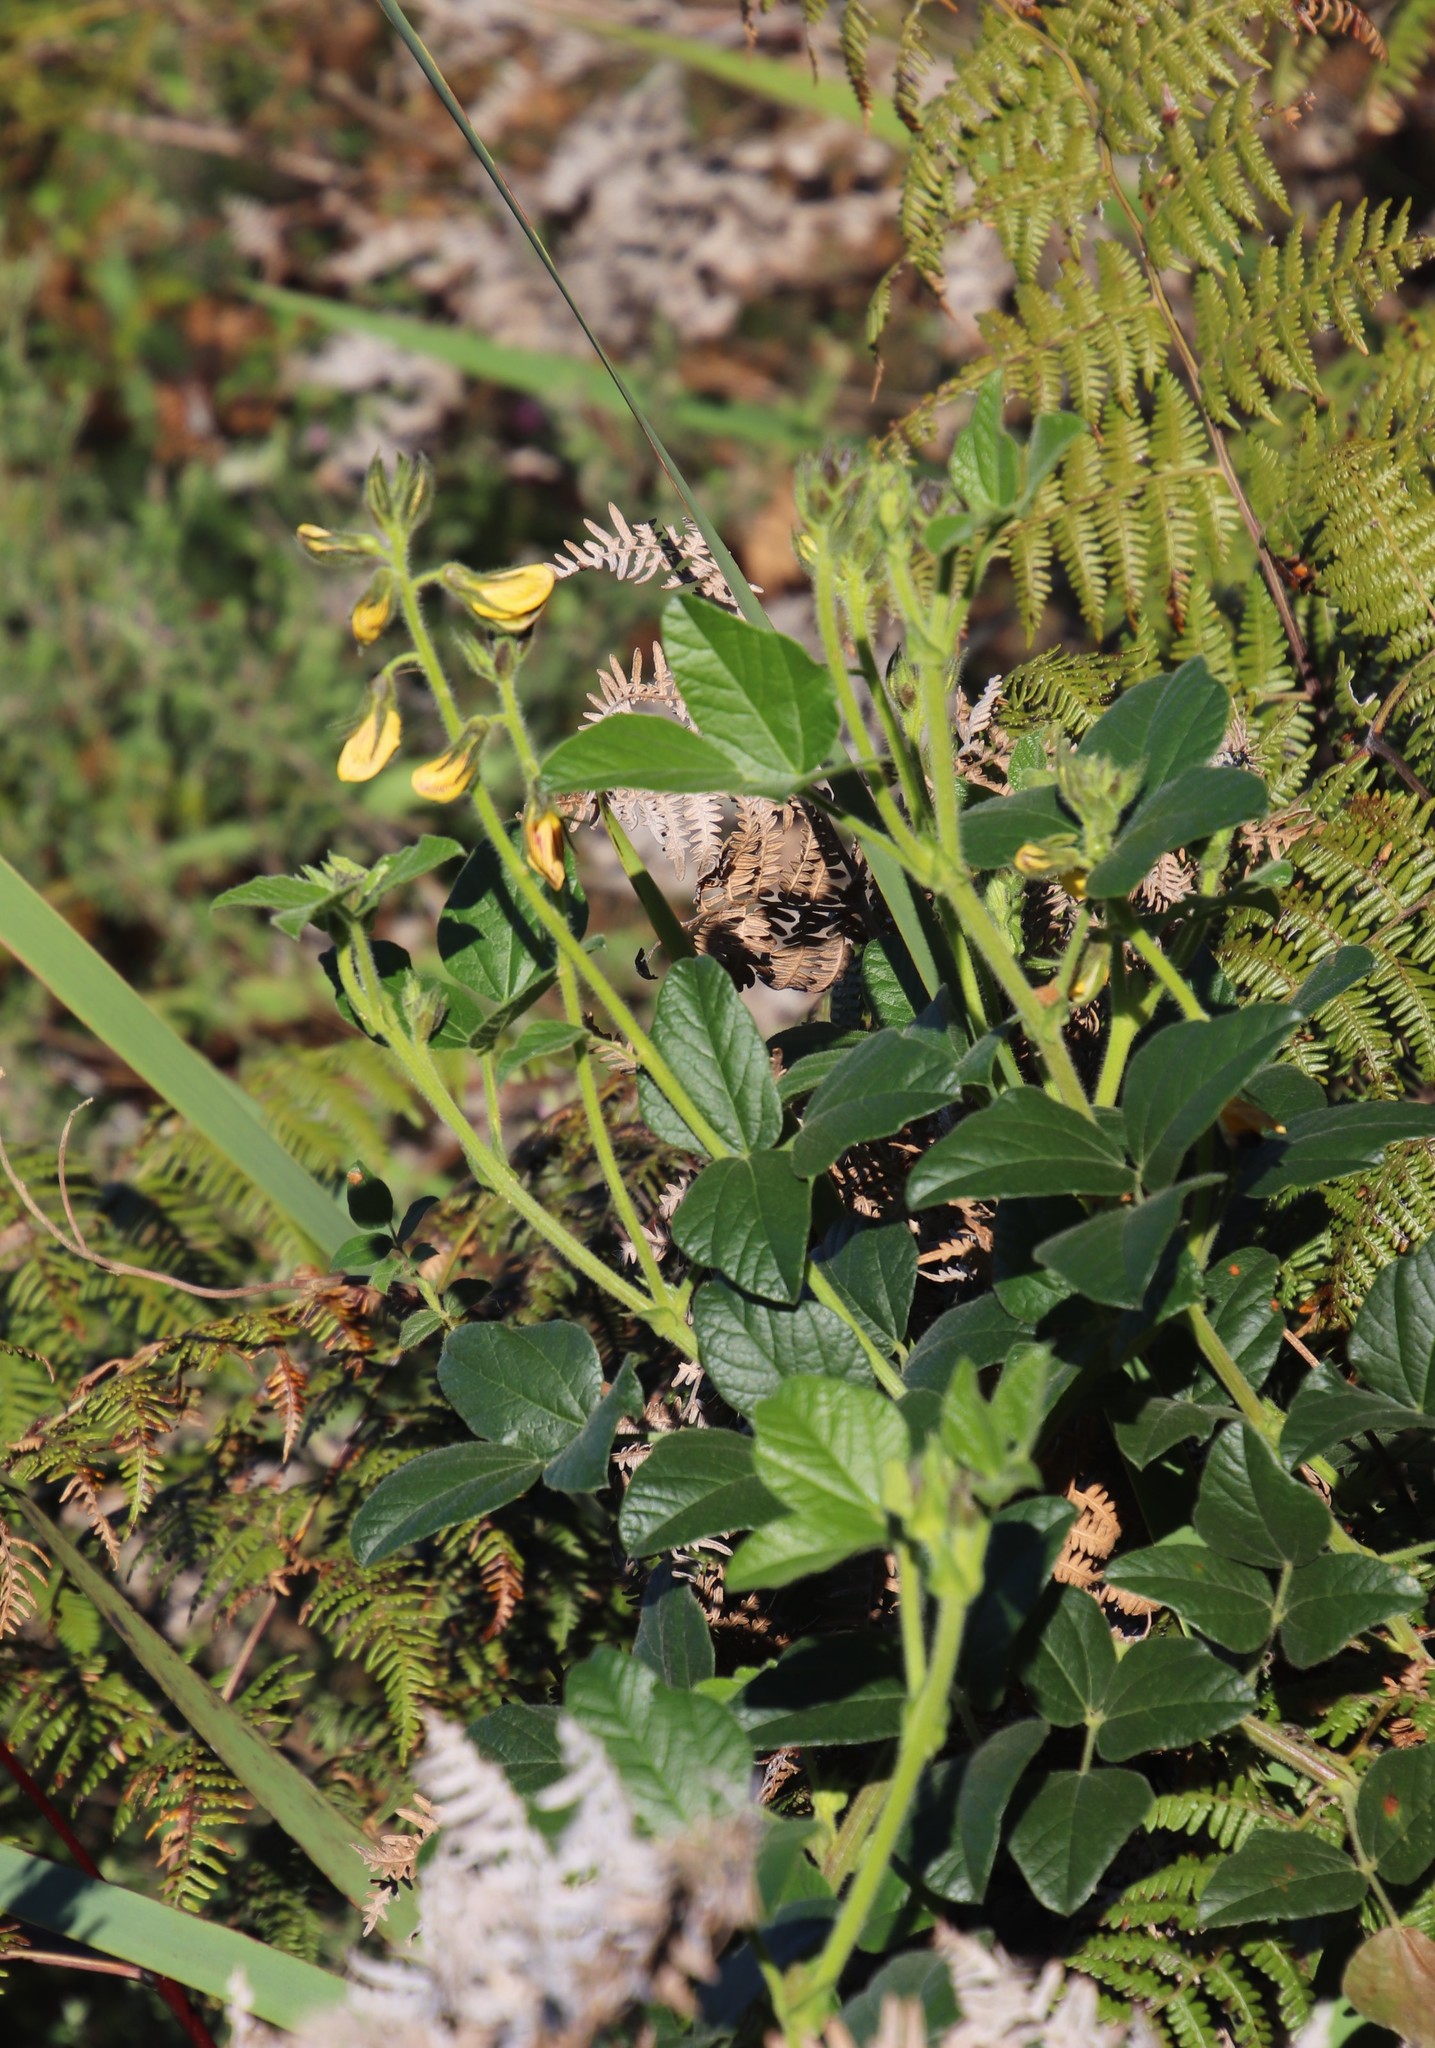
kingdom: Plantae
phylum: Tracheophyta
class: Magnoliopsida
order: Fabales
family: Fabaceae
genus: Bolusafra
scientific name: Bolusafra bituminosa
